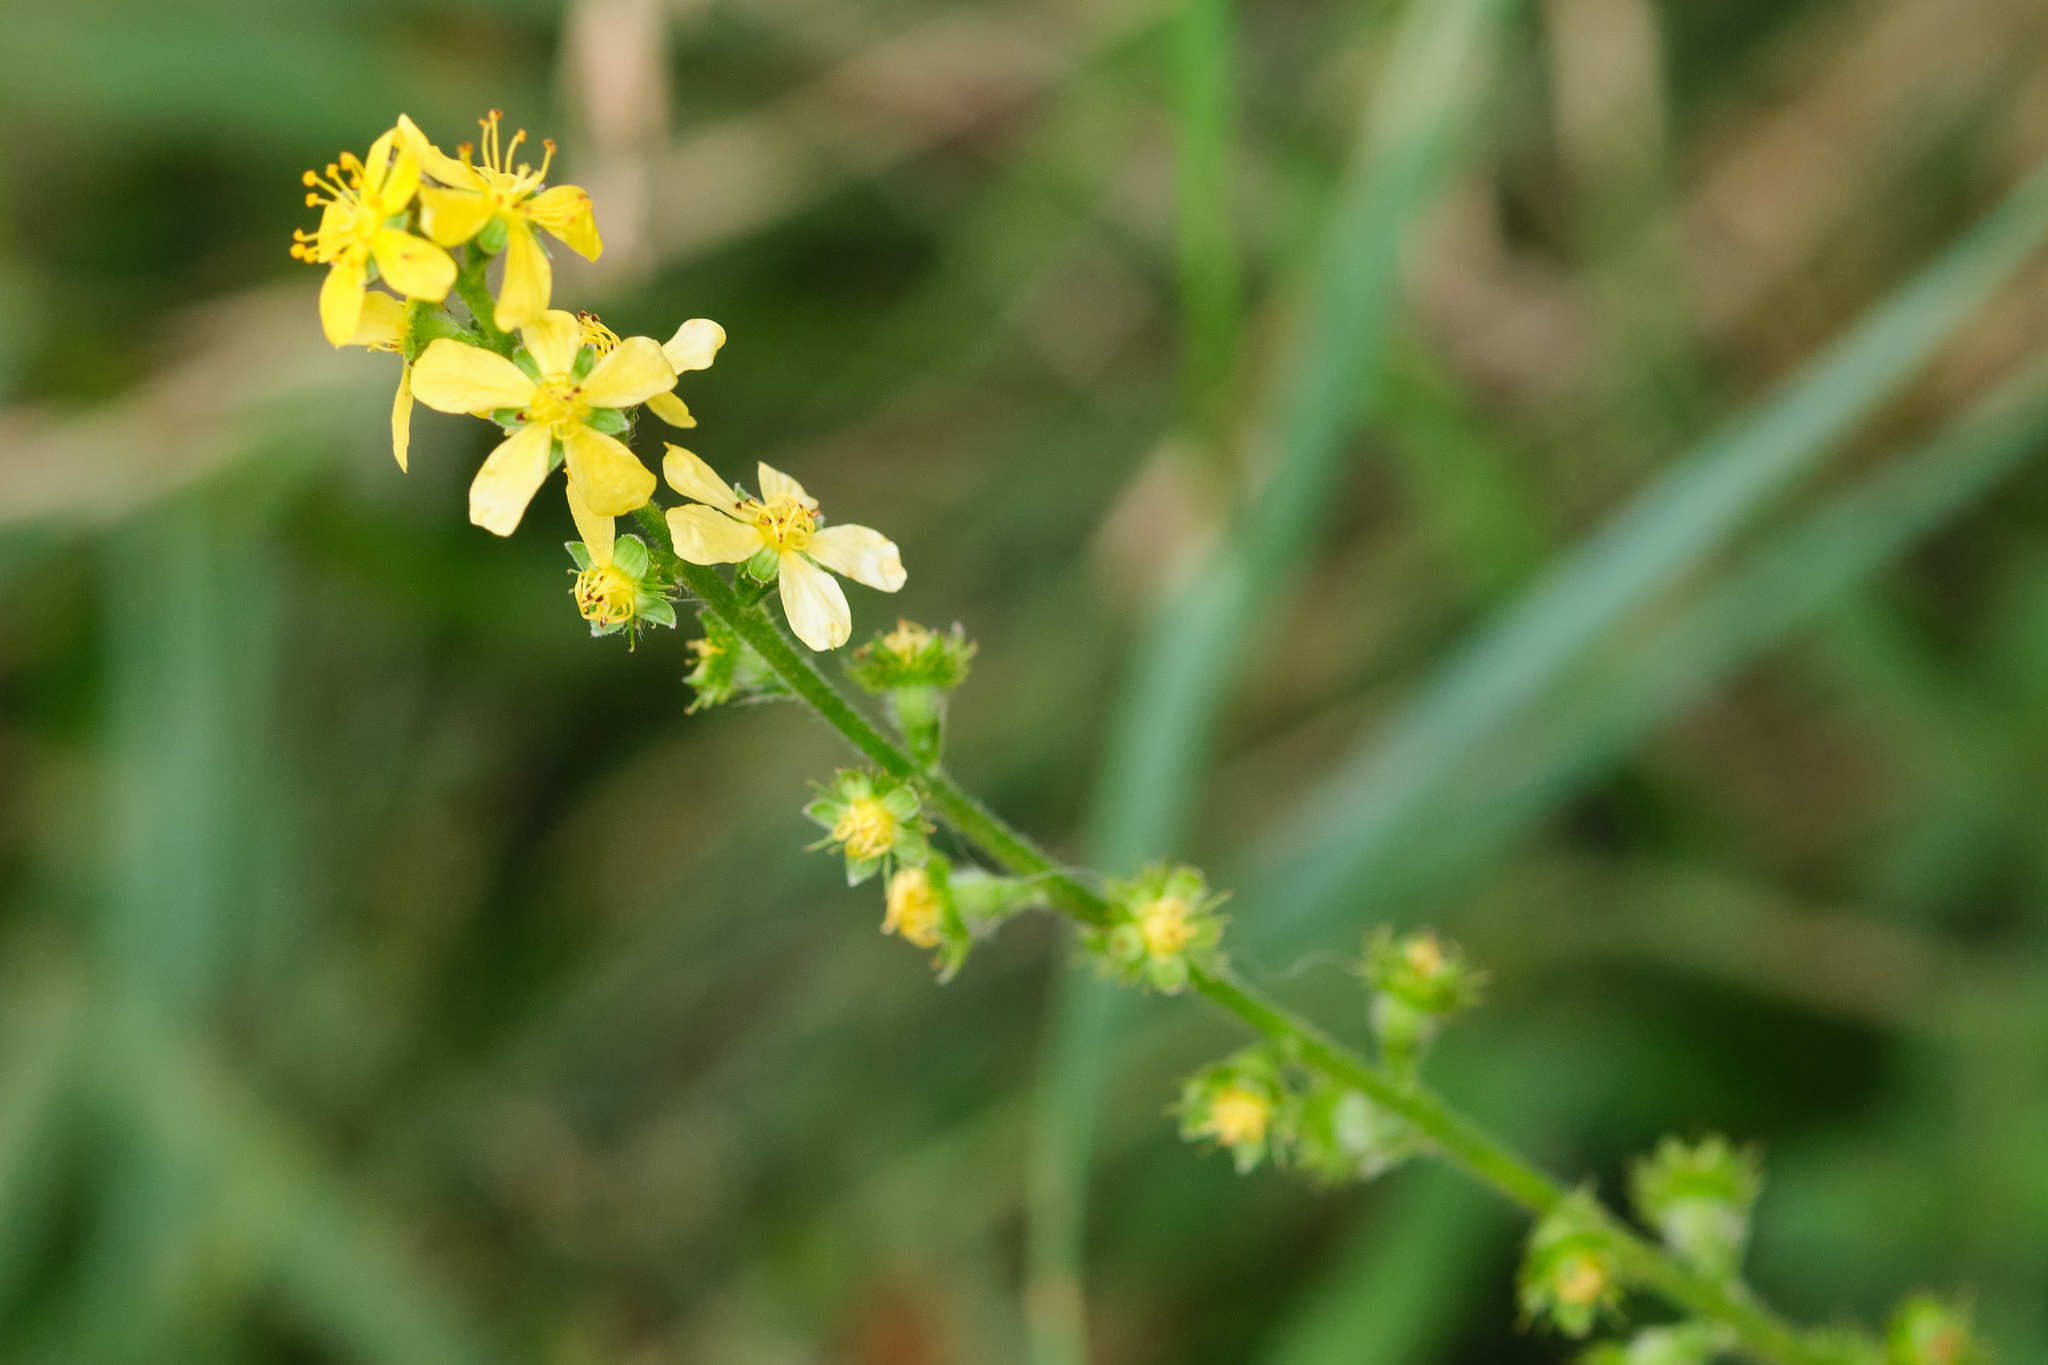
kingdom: Plantae
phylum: Tracheophyta
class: Magnoliopsida
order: Rosales
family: Rosaceae
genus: Agrimonia
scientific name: Agrimonia eupatoria
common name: Agrimony
